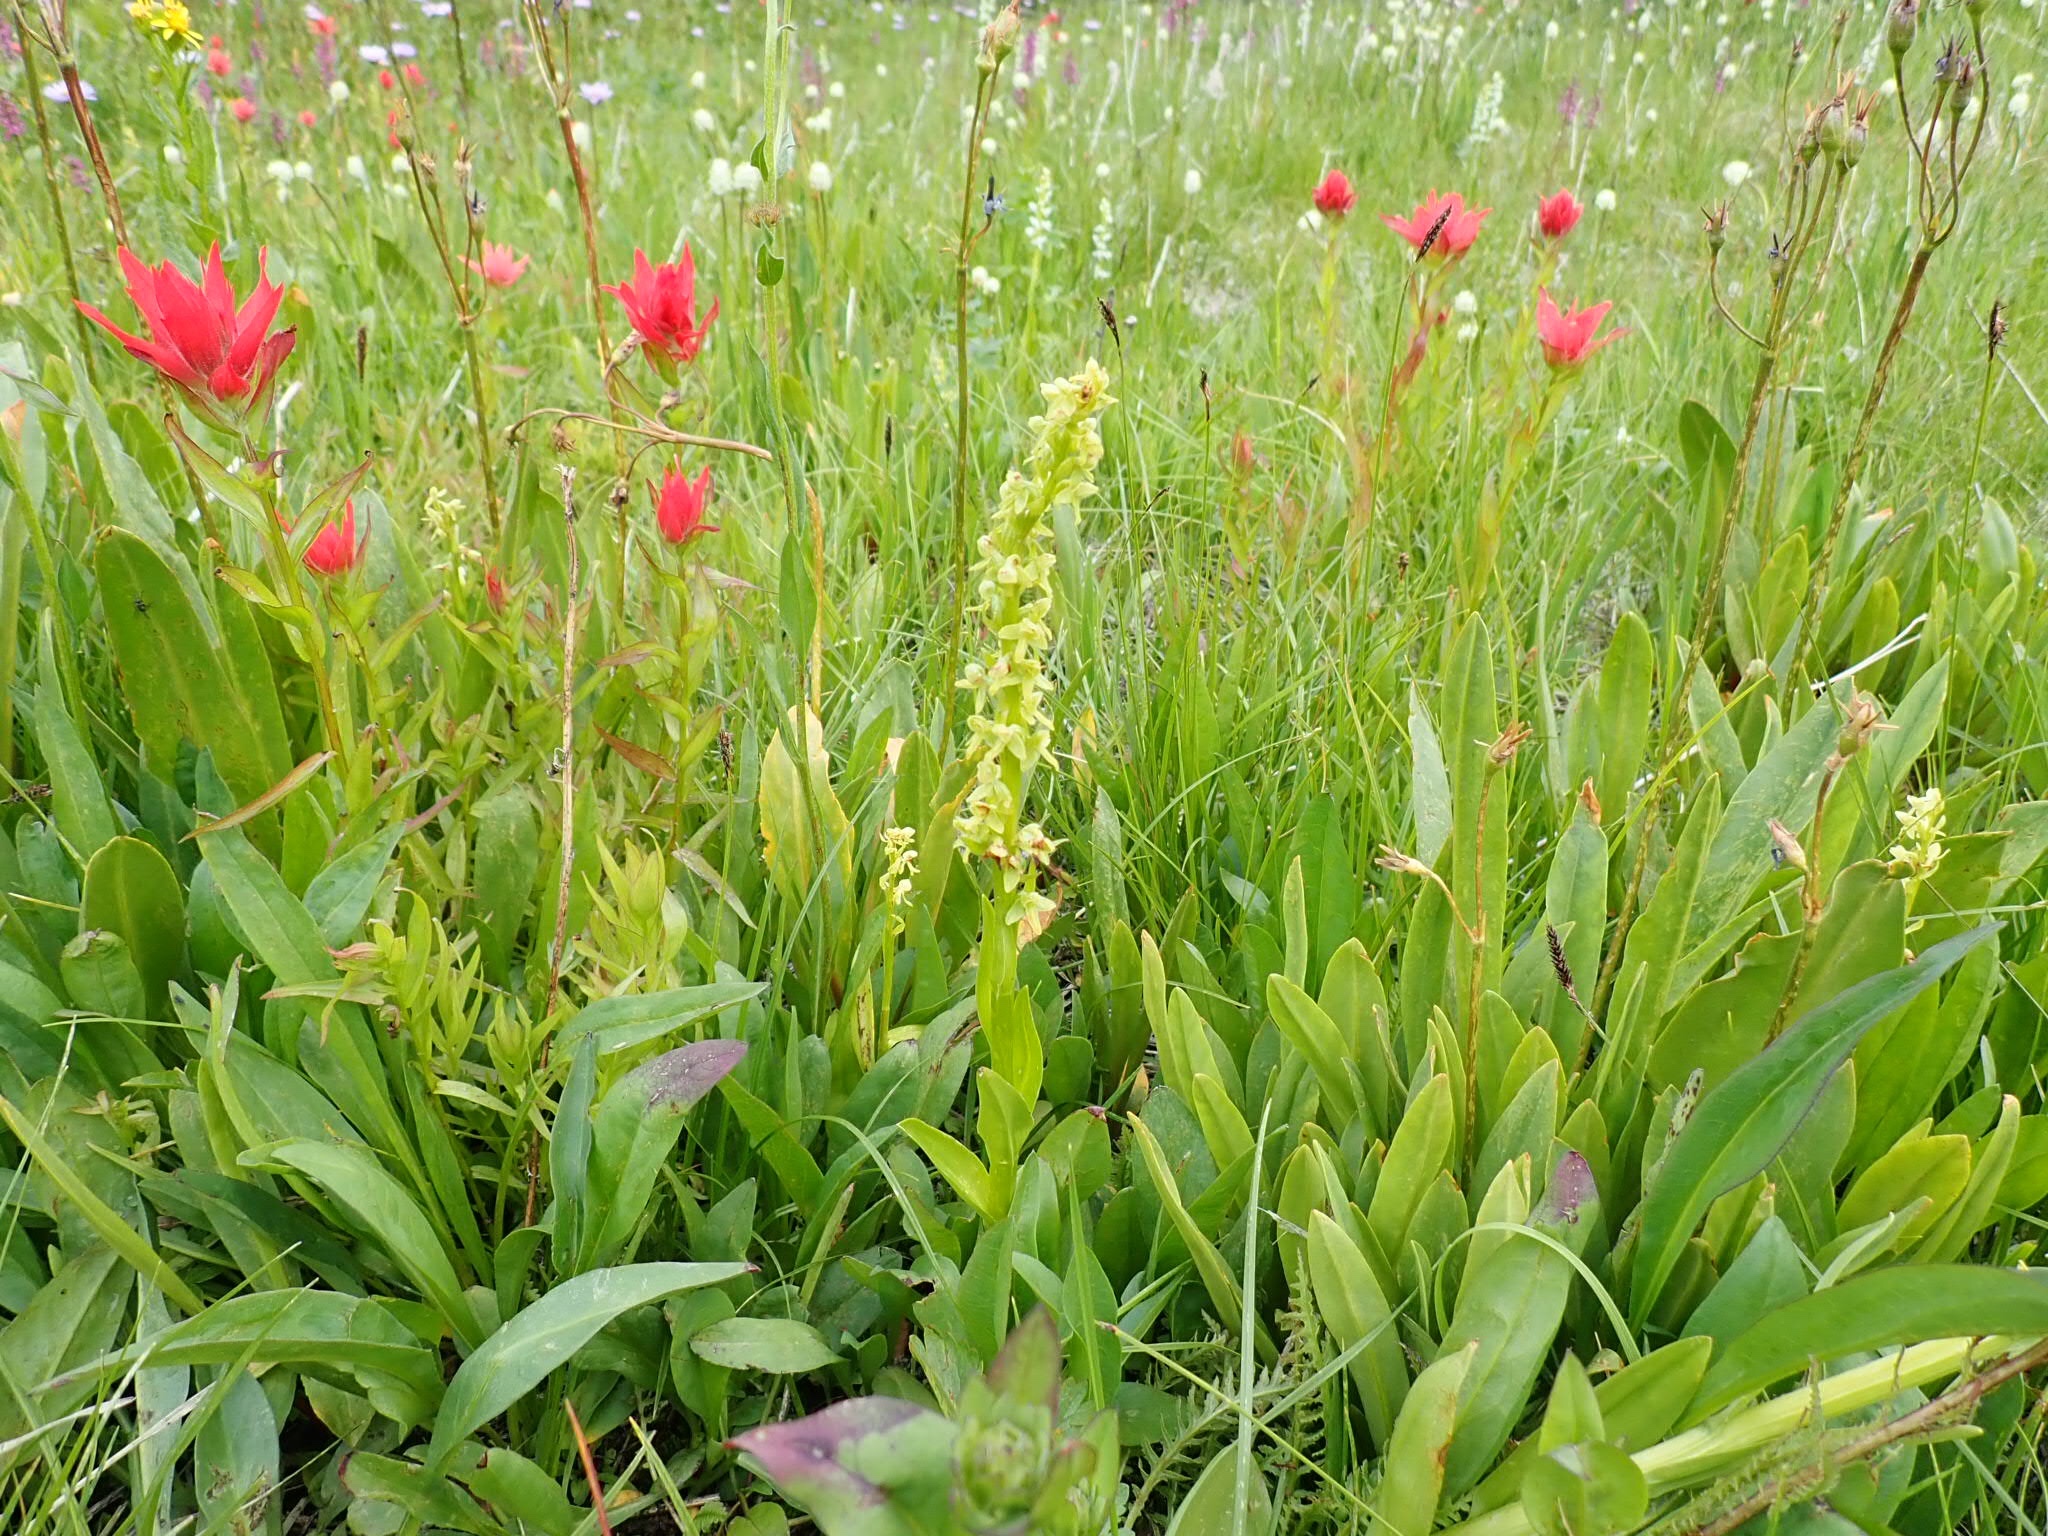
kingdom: Plantae
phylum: Tracheophyta
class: Liliopsida
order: Asparagales
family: Orchidaceae
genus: Platanthera
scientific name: Platanthera stricta
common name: Slender bog orchid
